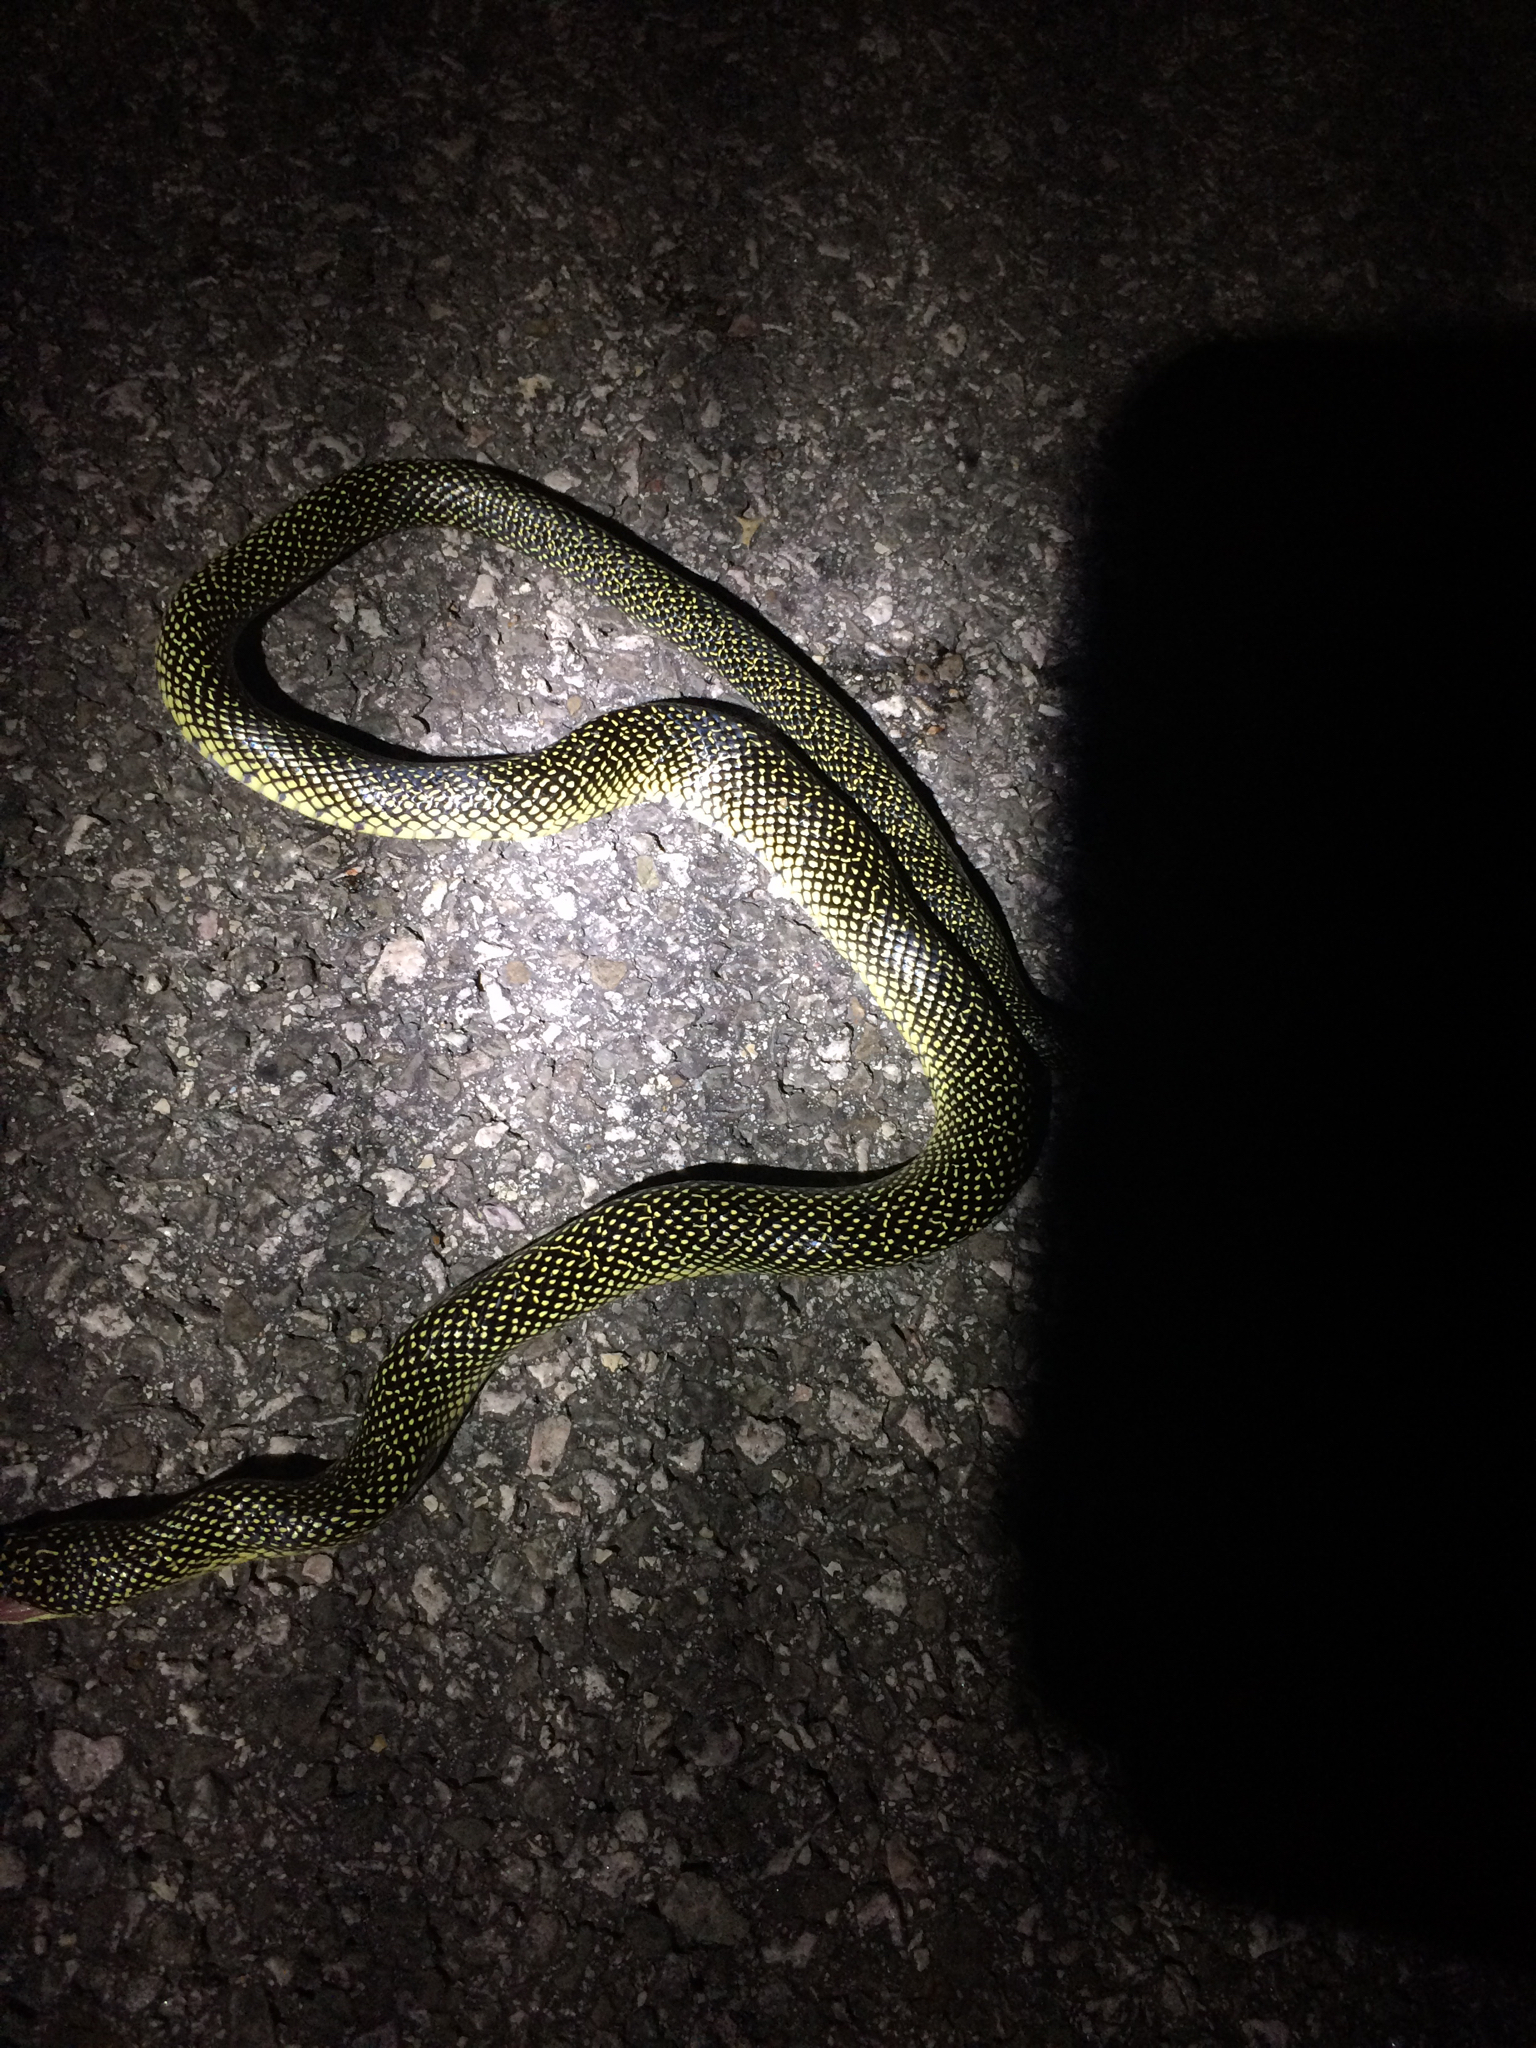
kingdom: Animalia
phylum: Chordata
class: Squamata
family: Colubridae
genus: Lampropeltis
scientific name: Lampropeltis holbrooki
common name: Speckled kingsnake
